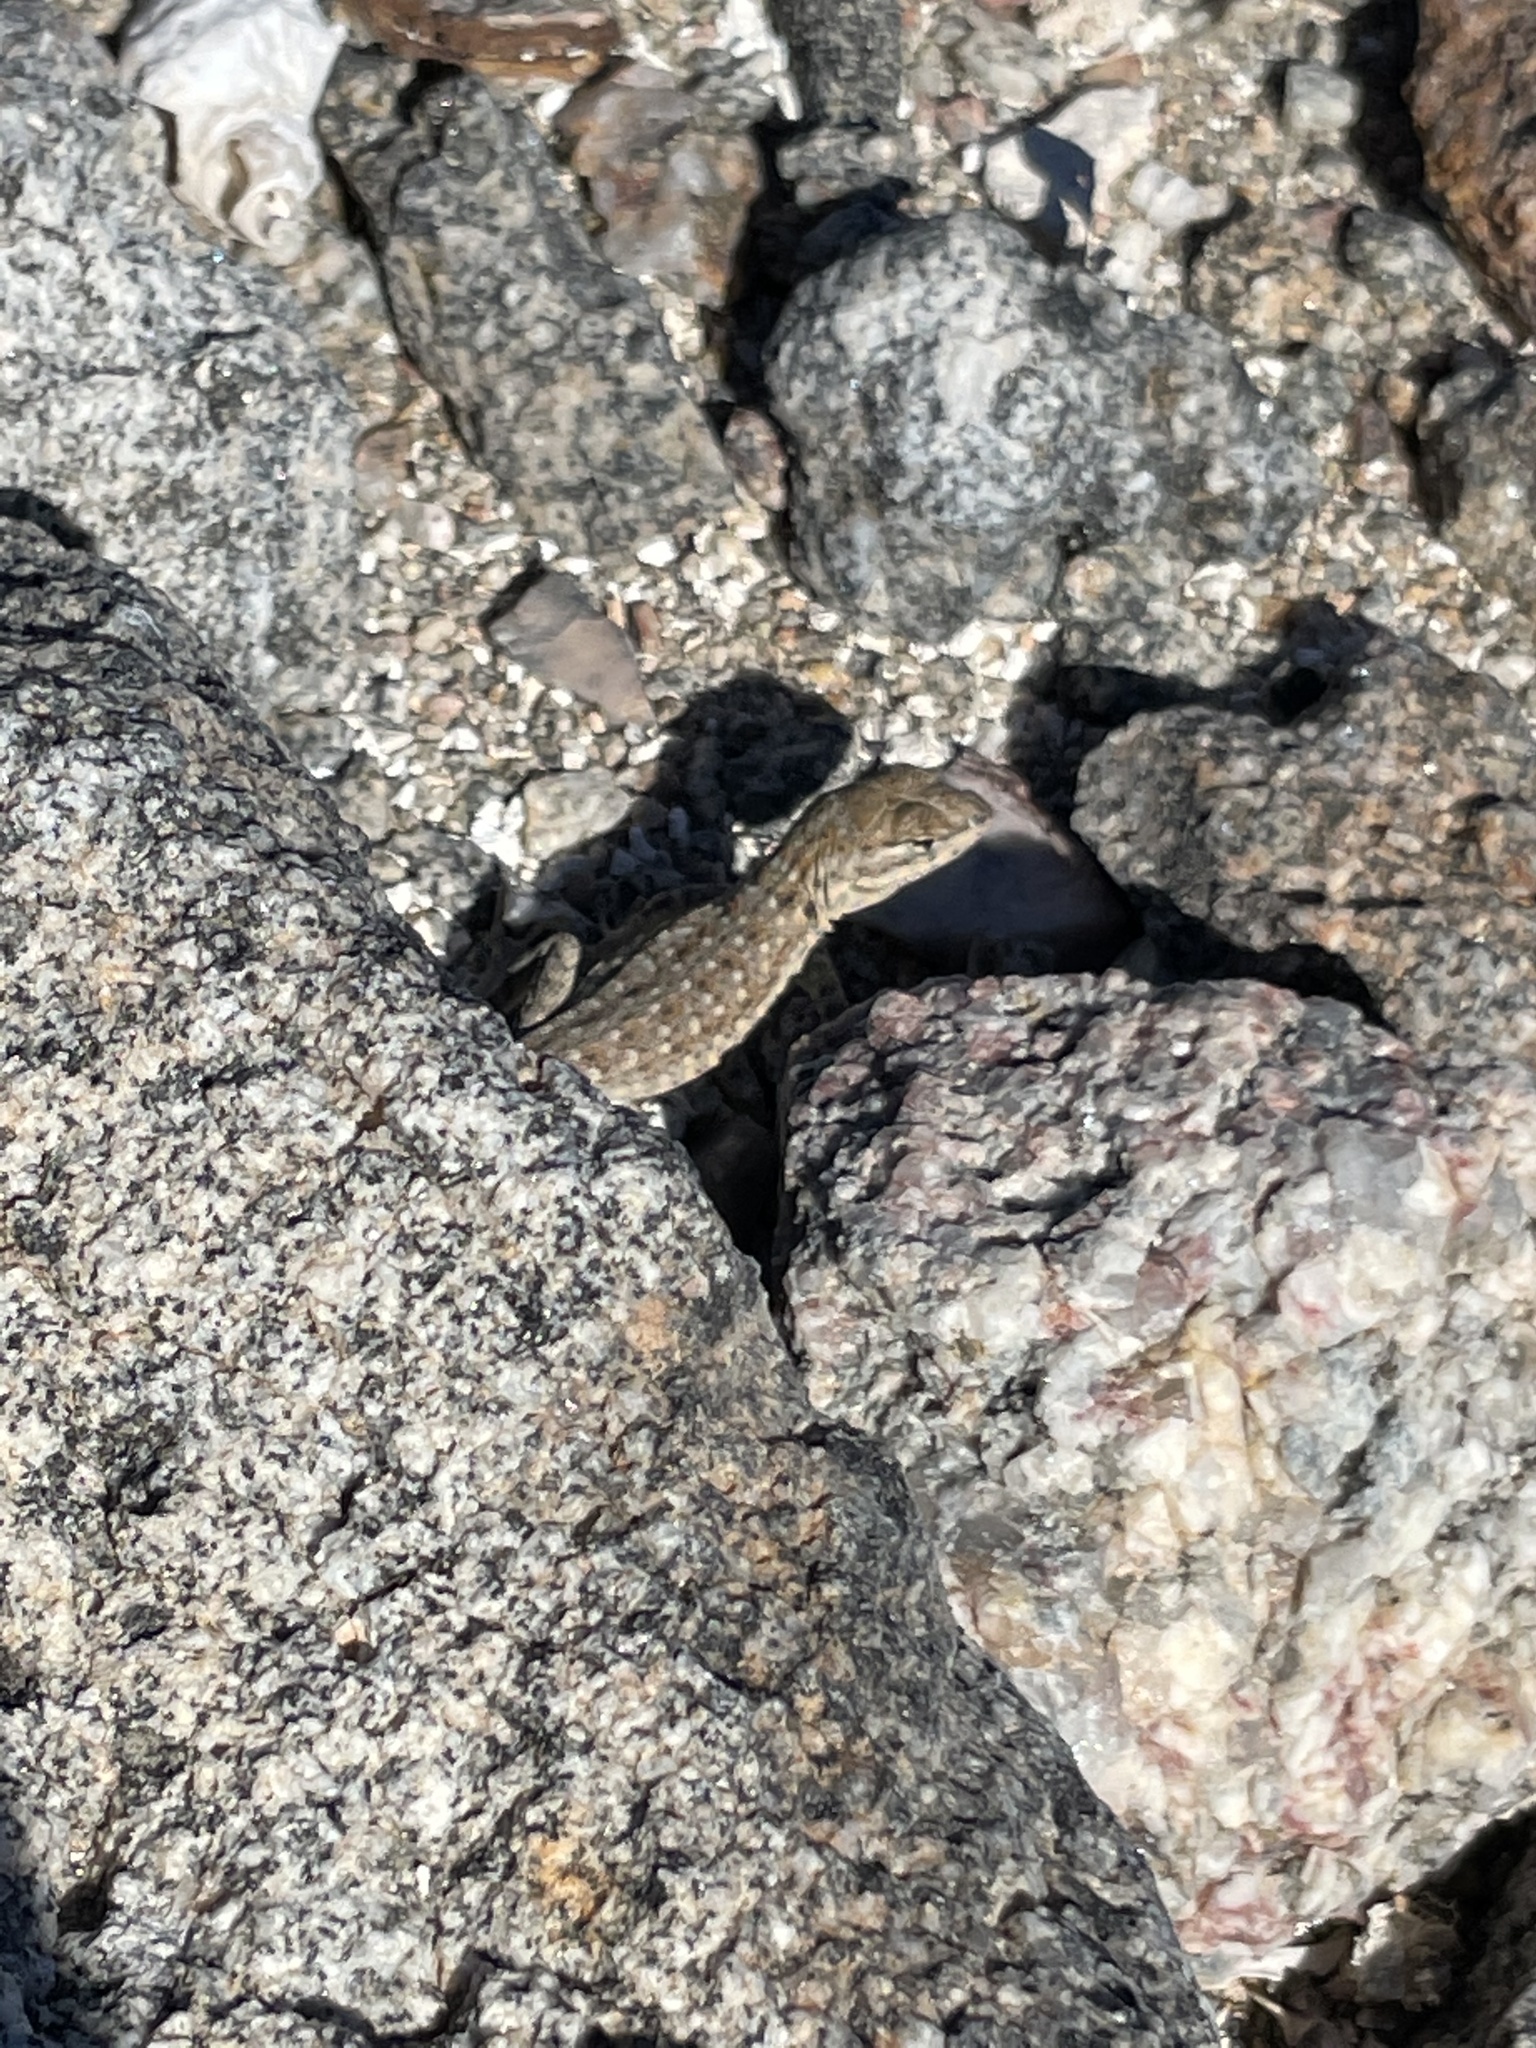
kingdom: Animalia
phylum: Chordata
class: Squamata
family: Phrynosomatidae
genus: Uta
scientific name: Uta stansburiana
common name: Side-blotched lizard
